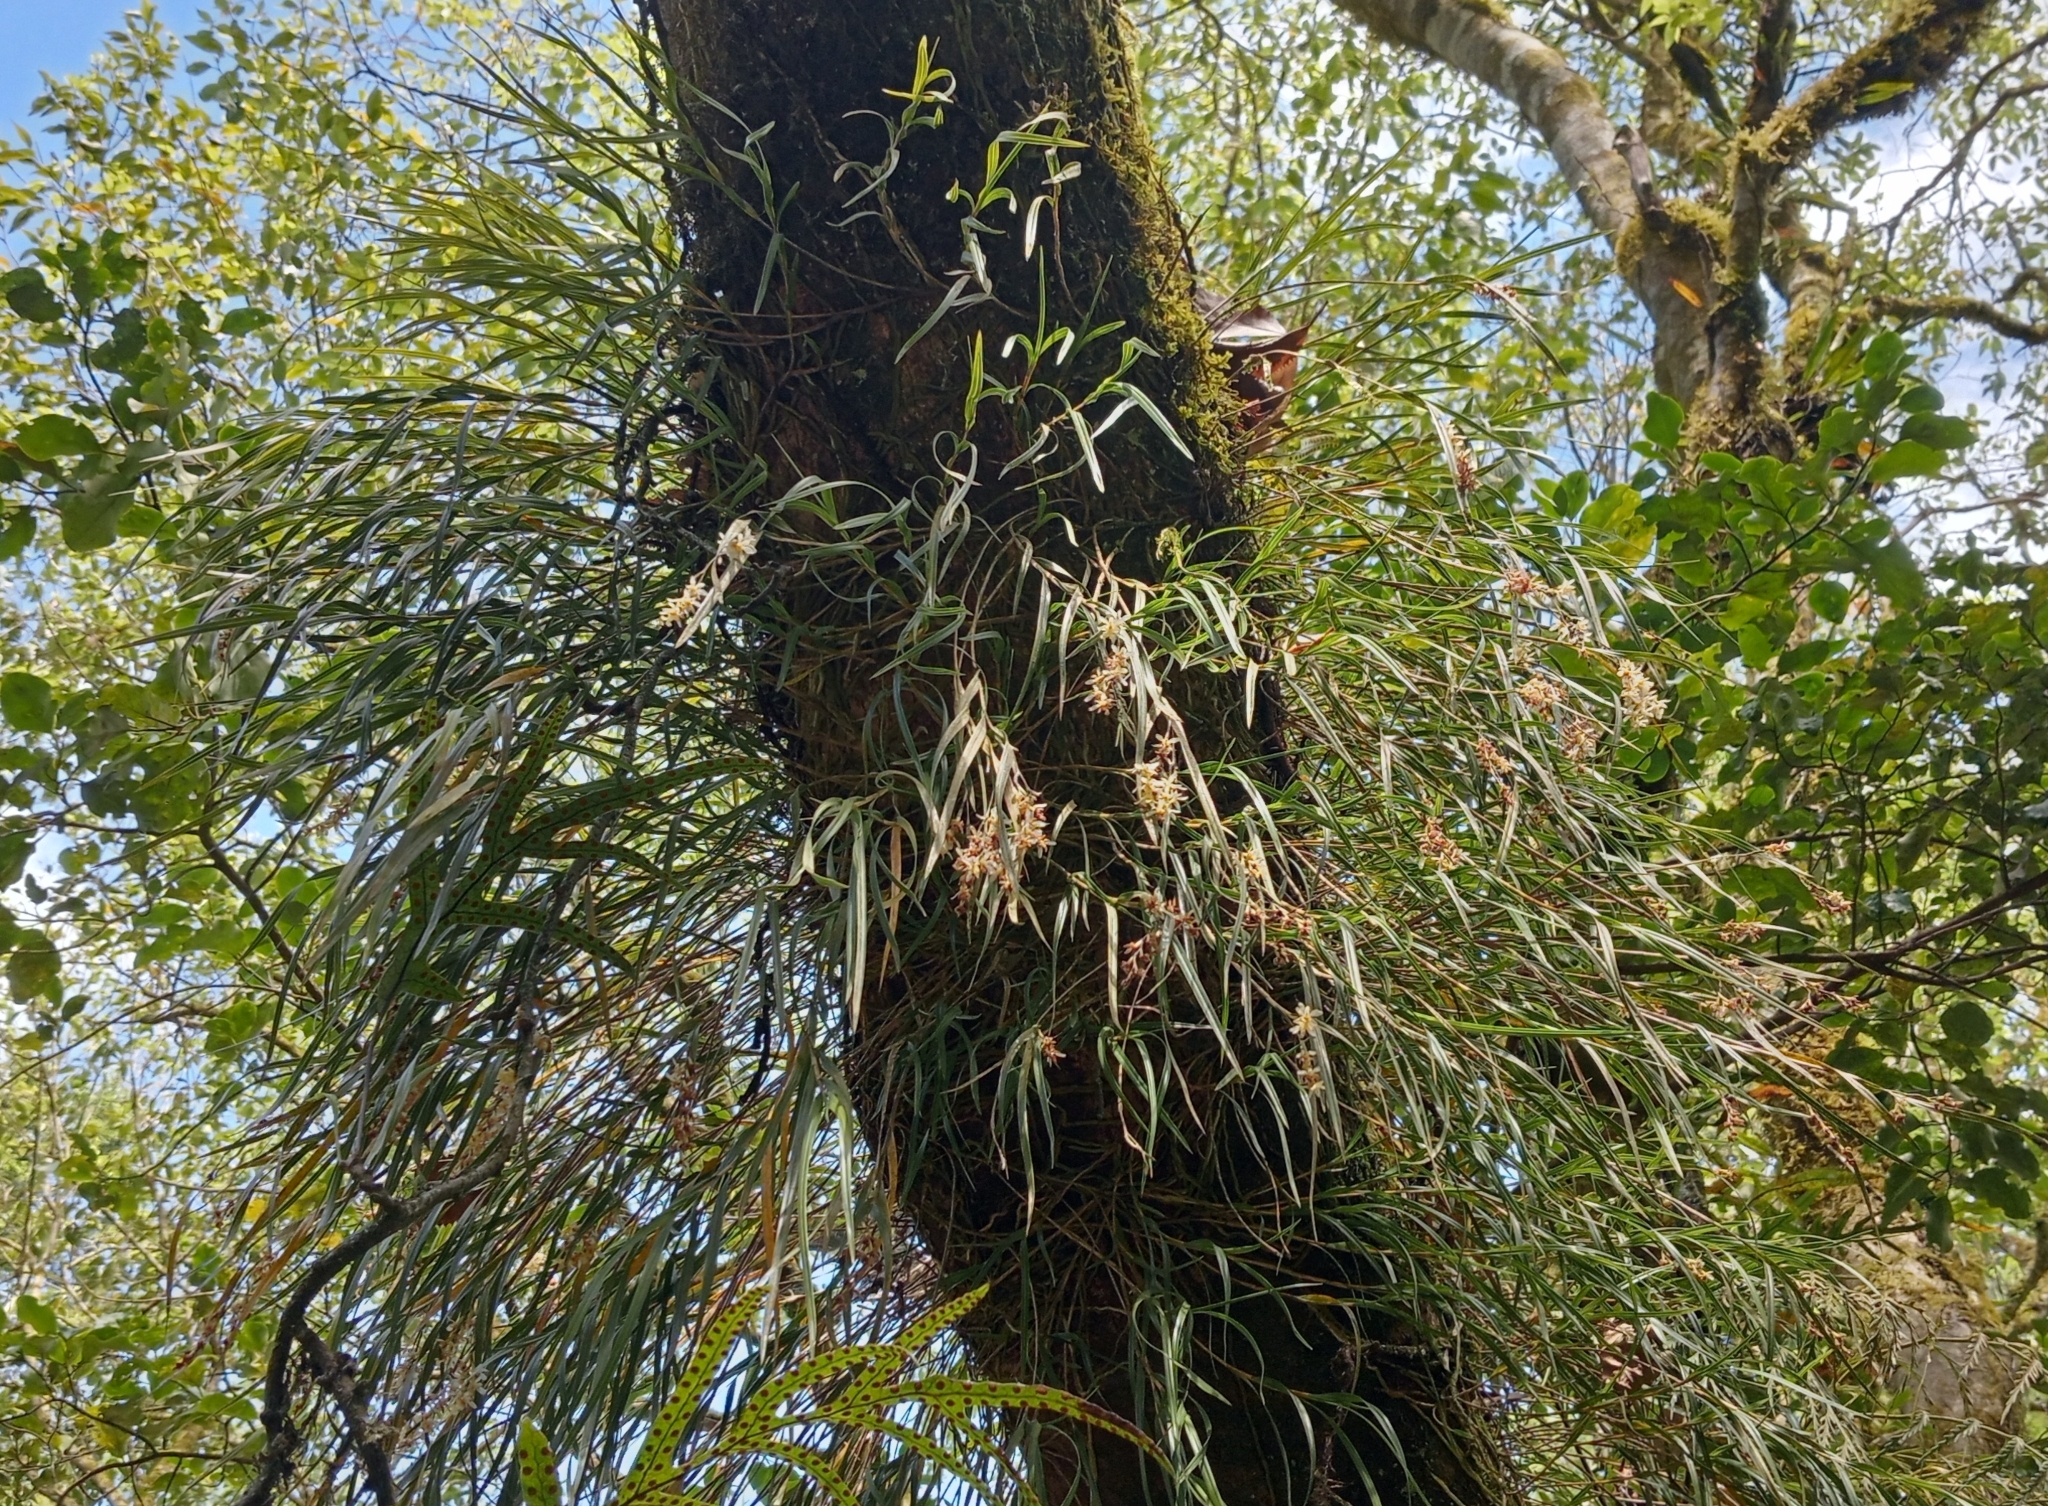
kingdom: Plantae
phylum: Tracheophyta
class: Liliopsida
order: Asparagales
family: Orchidaceae
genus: Earina
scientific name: Earina mucronata
